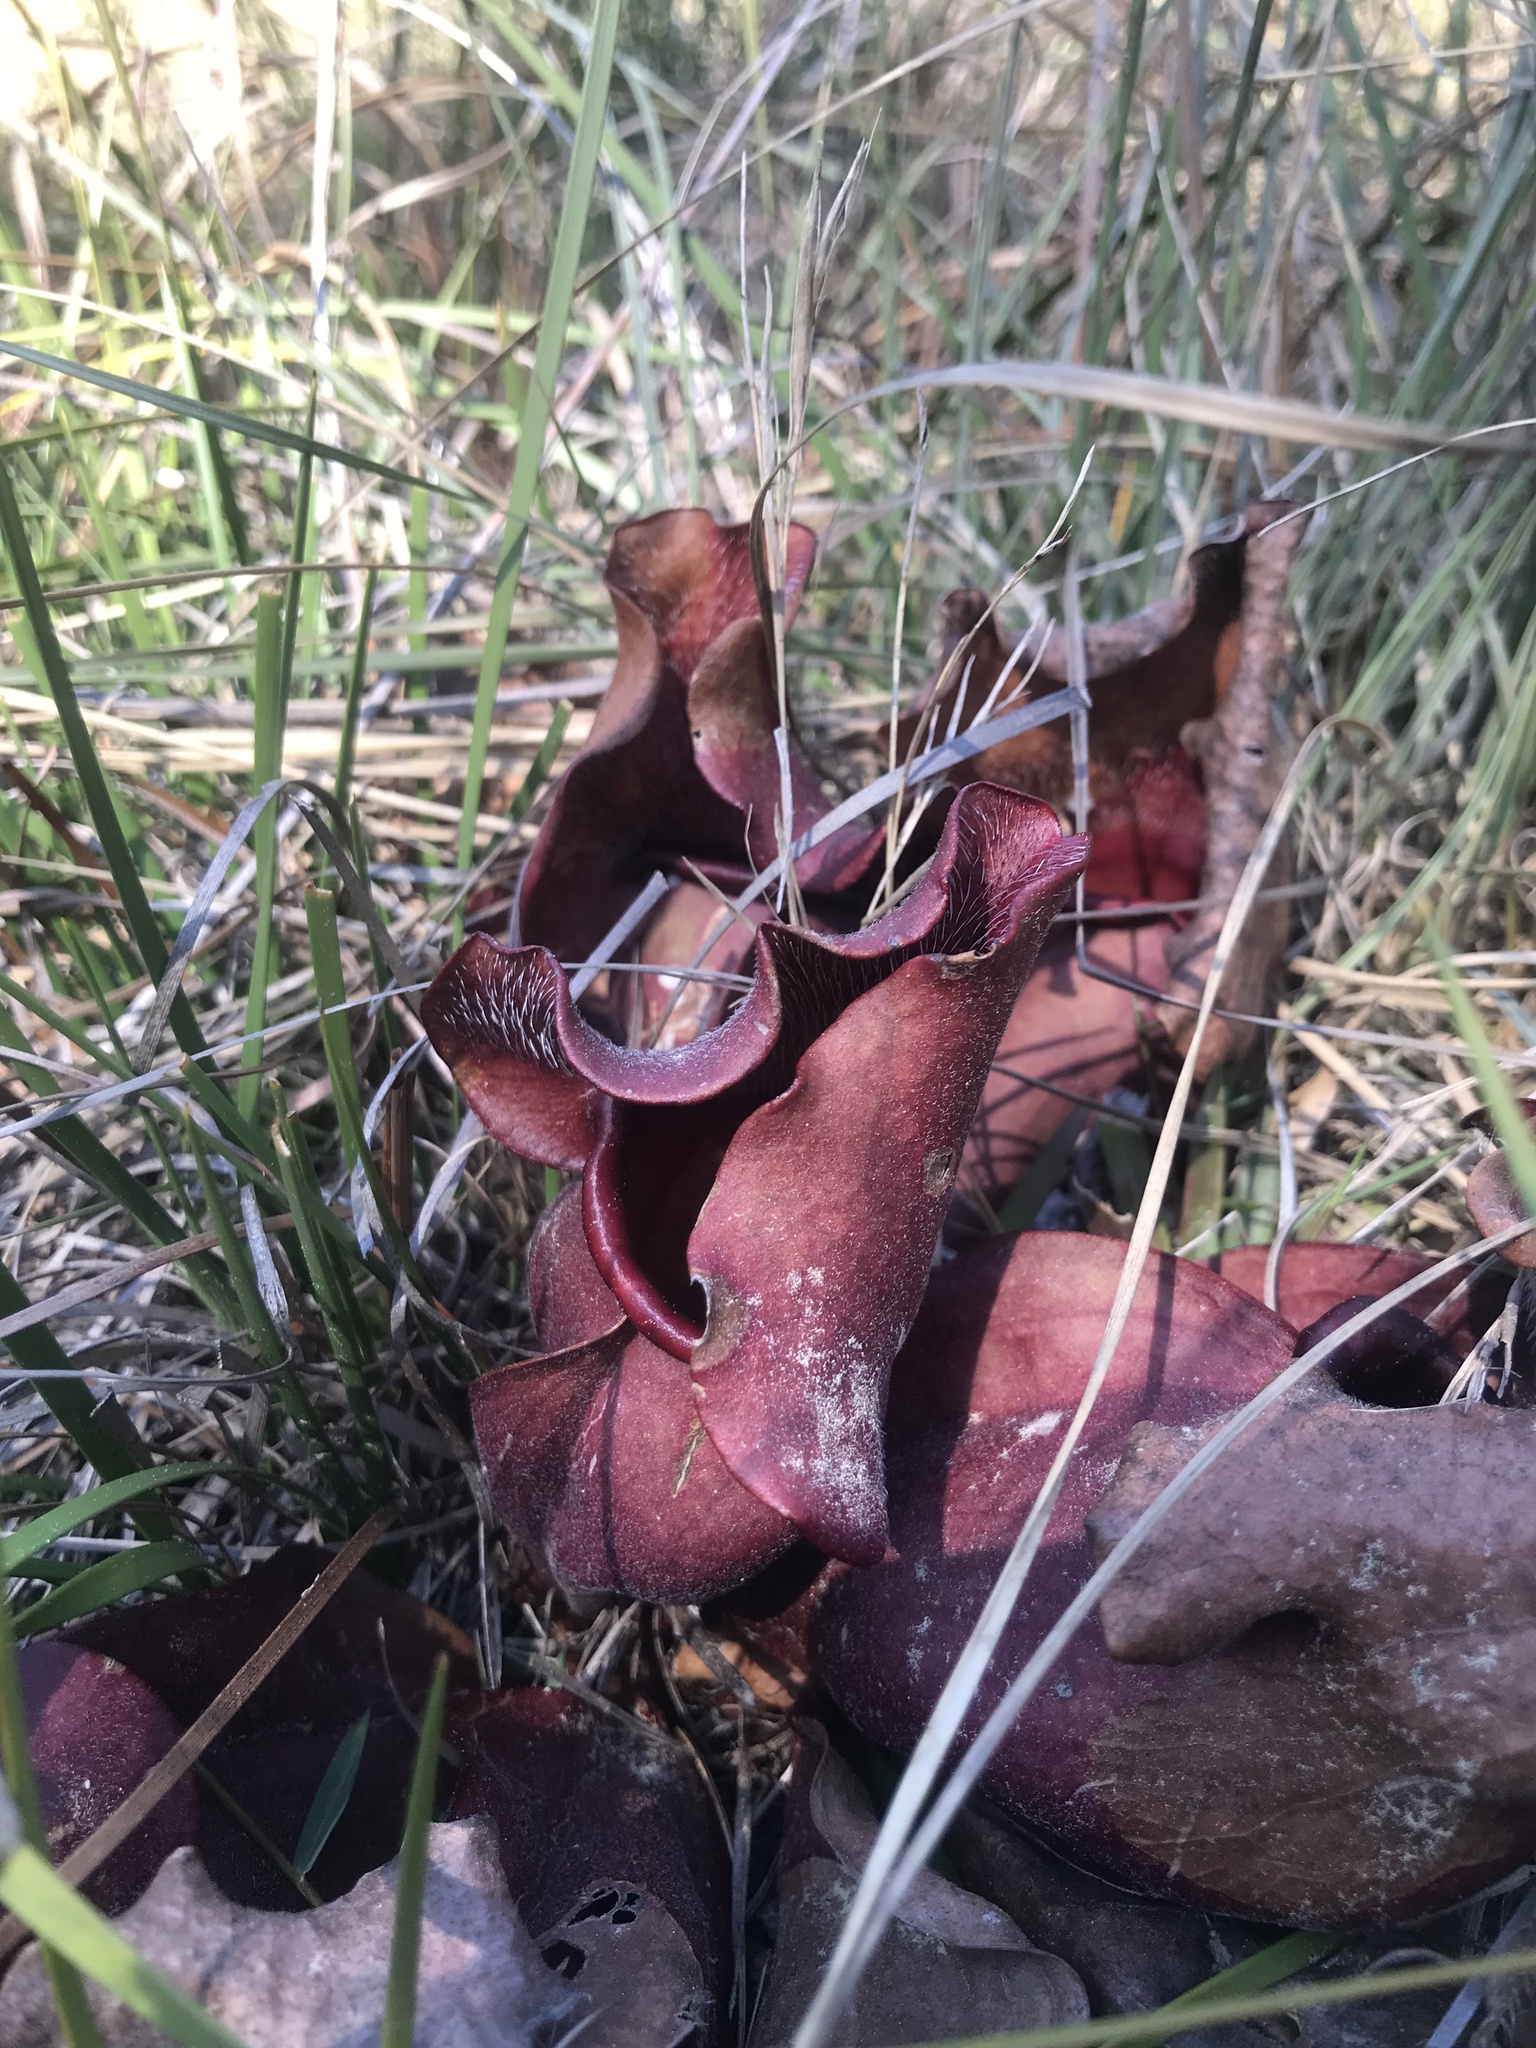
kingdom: Plantae
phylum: Tracheophyta
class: Magnoliopsida
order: Ericales
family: Sarraceniaceae
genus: Sarracenia
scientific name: Sarracenia purpurea
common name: Pitcherplant
